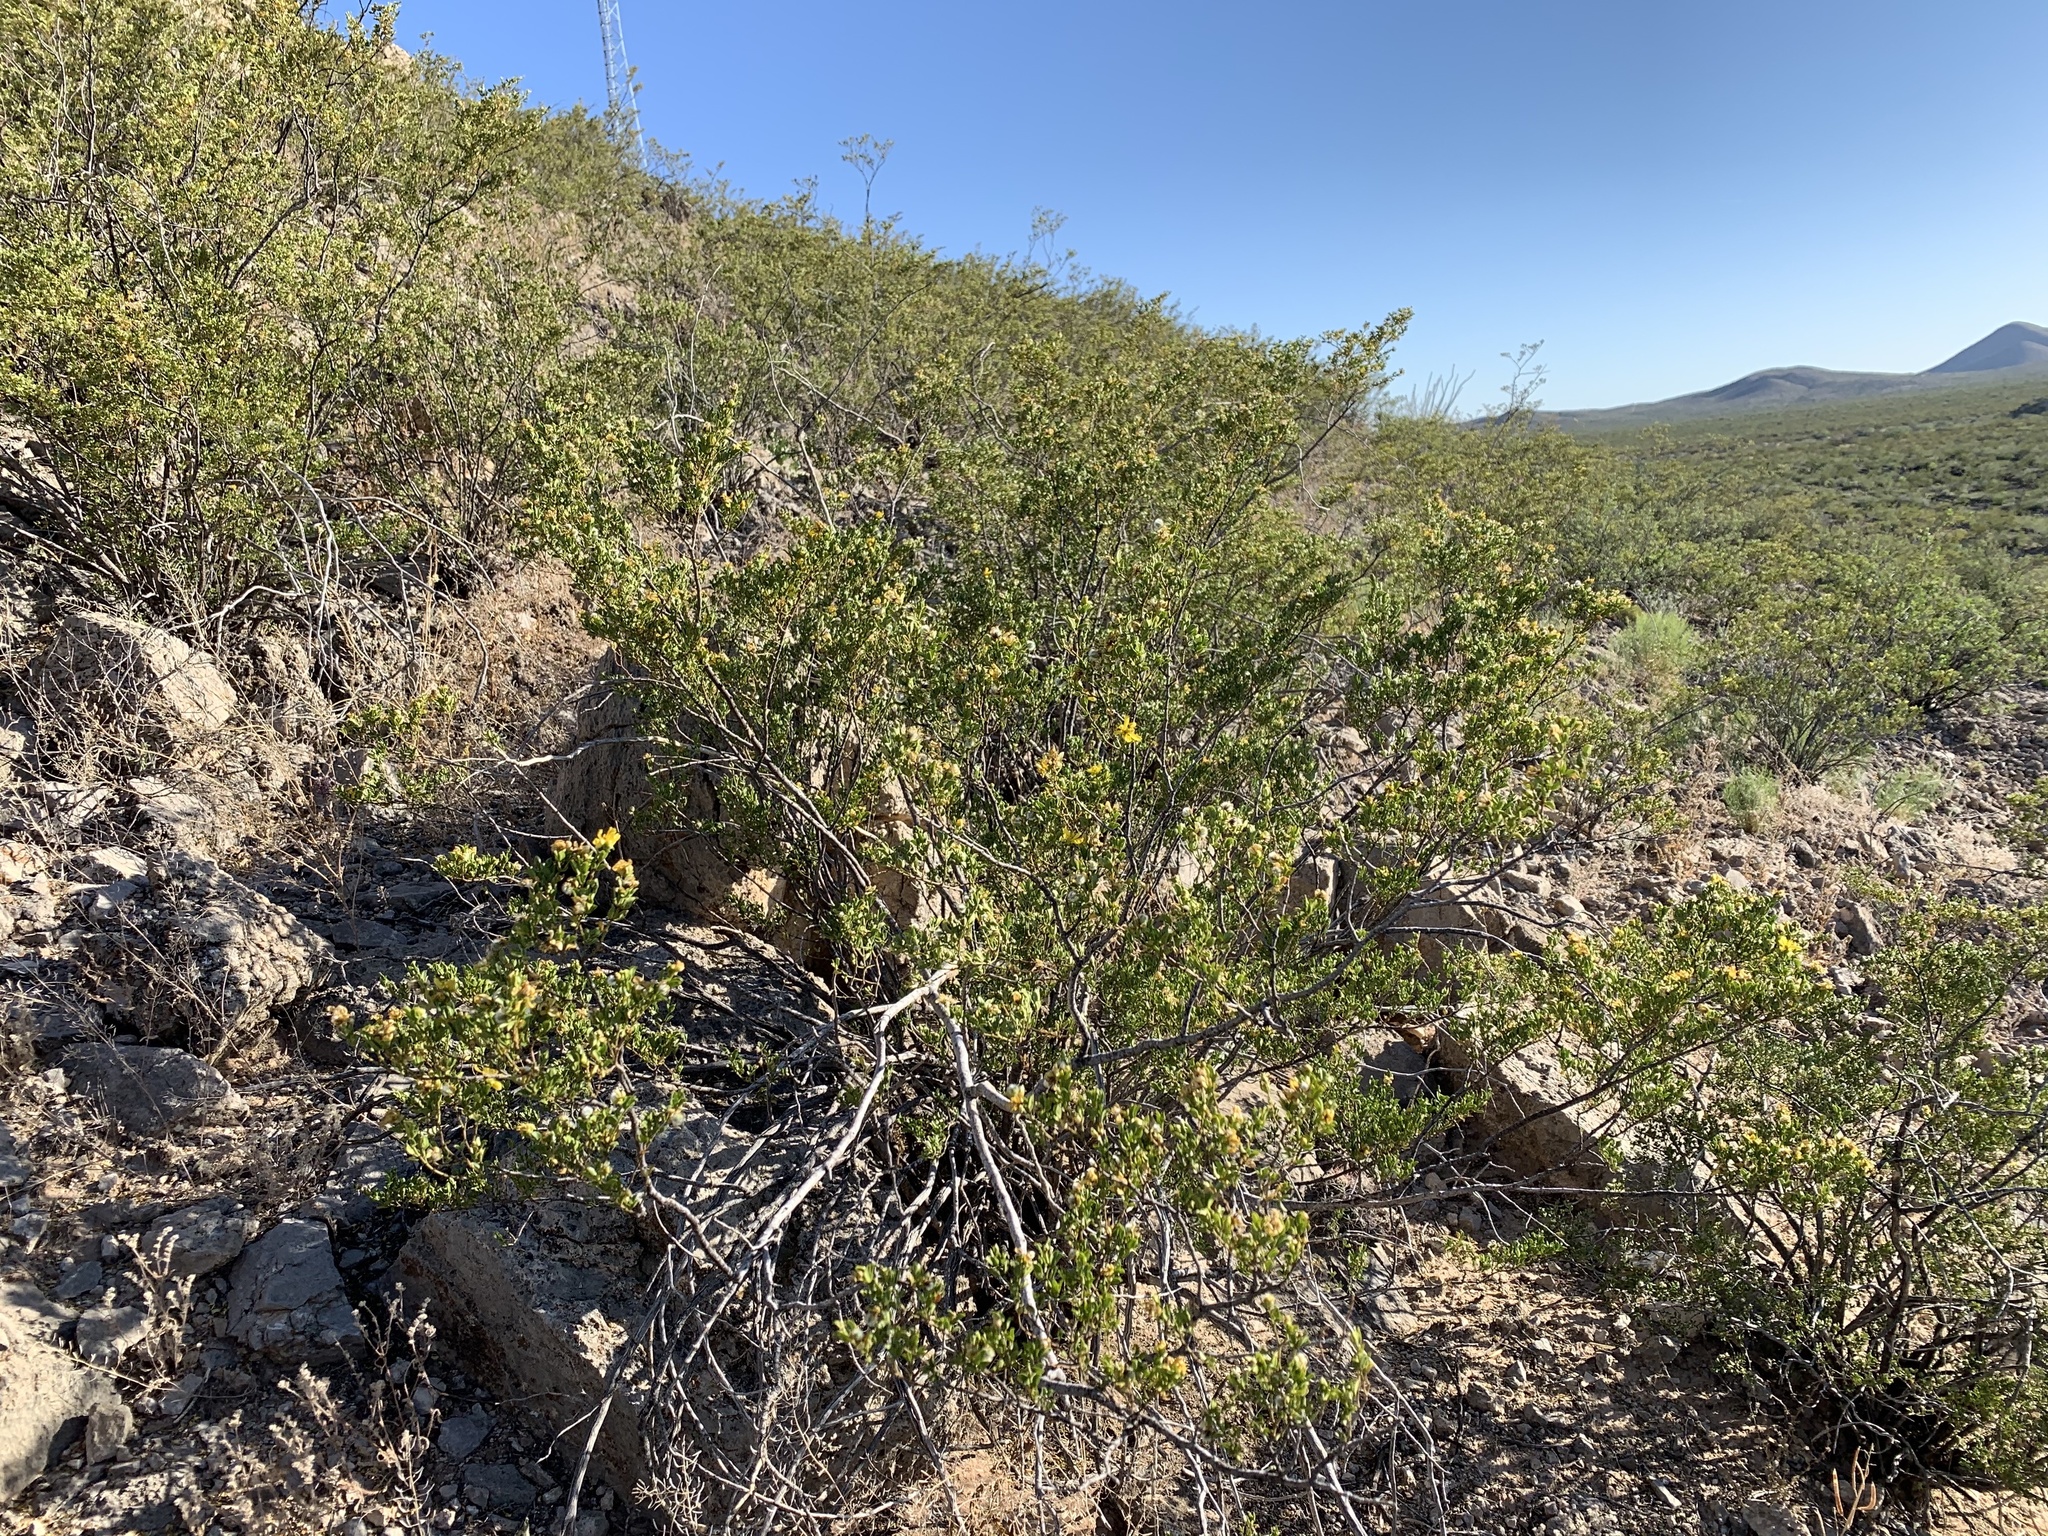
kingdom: Plantae
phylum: Tracheophyta
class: Magnoliopsida
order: Zygophyllales
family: Zygophyllaceae
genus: Larrea
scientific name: Larrea tridentata
